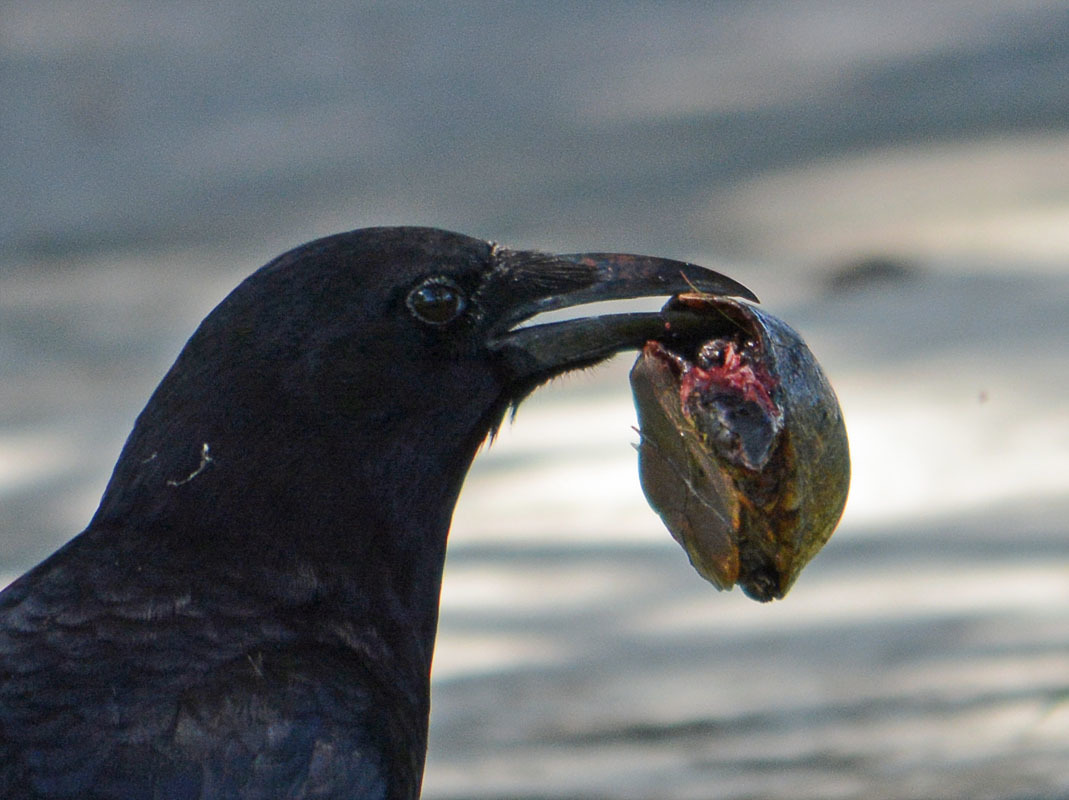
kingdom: Animalia
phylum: Chordata
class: Testudines
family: Kinosternidae
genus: Kinosternon
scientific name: Kinosternon baurii
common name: Striped mud turtle
